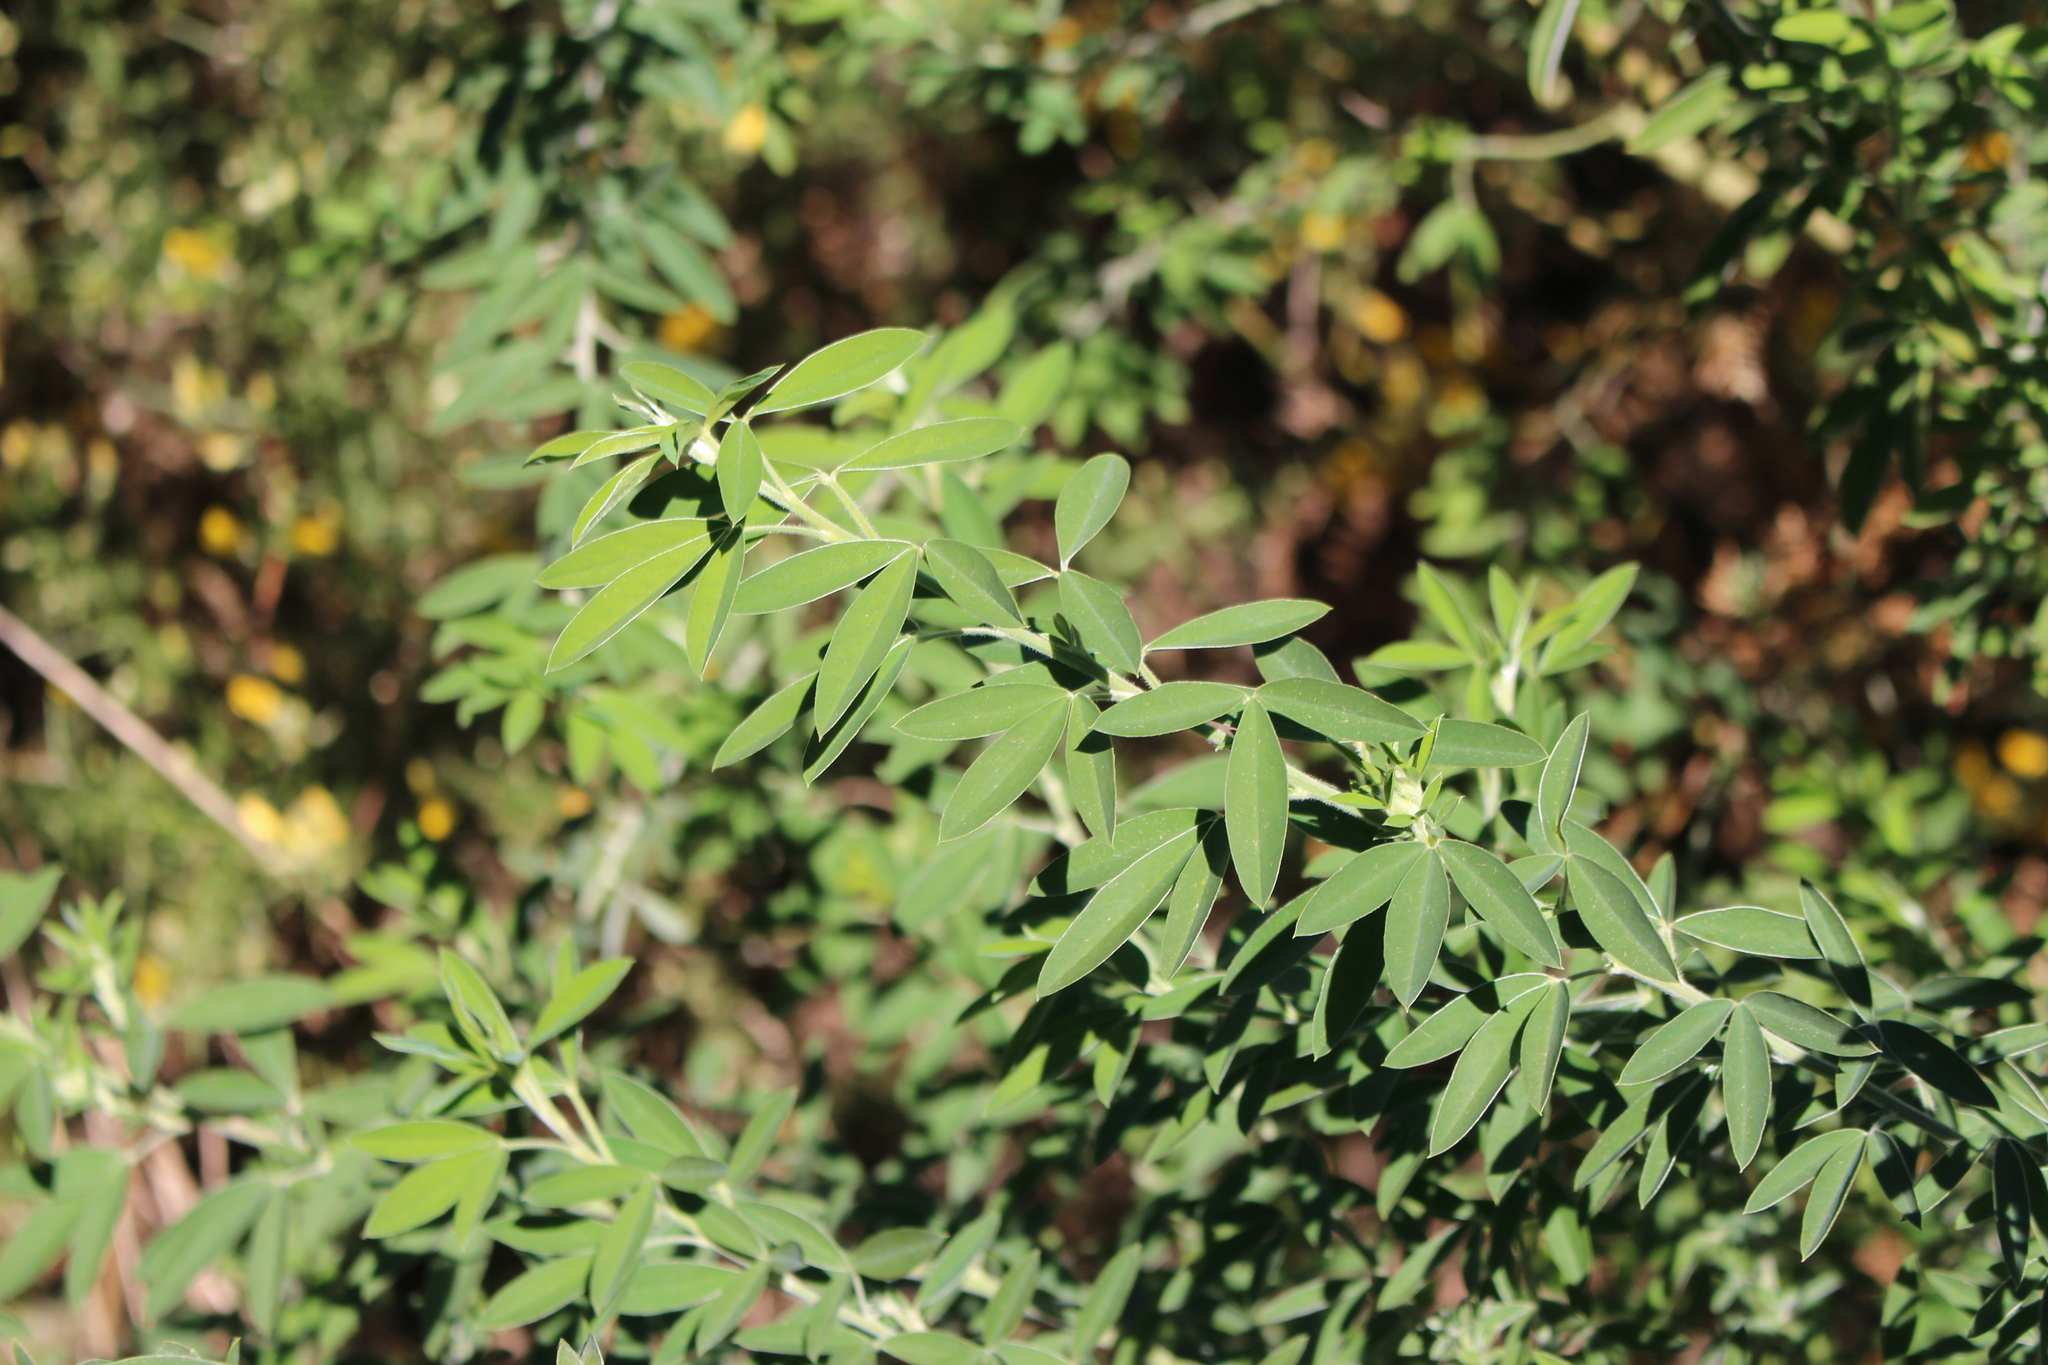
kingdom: Plantae
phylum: Tracheophyta
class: Magnoliopsida
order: Fabales
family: Fabaceae
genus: Chamaecytisus
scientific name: Chamaecytisus prolifer
